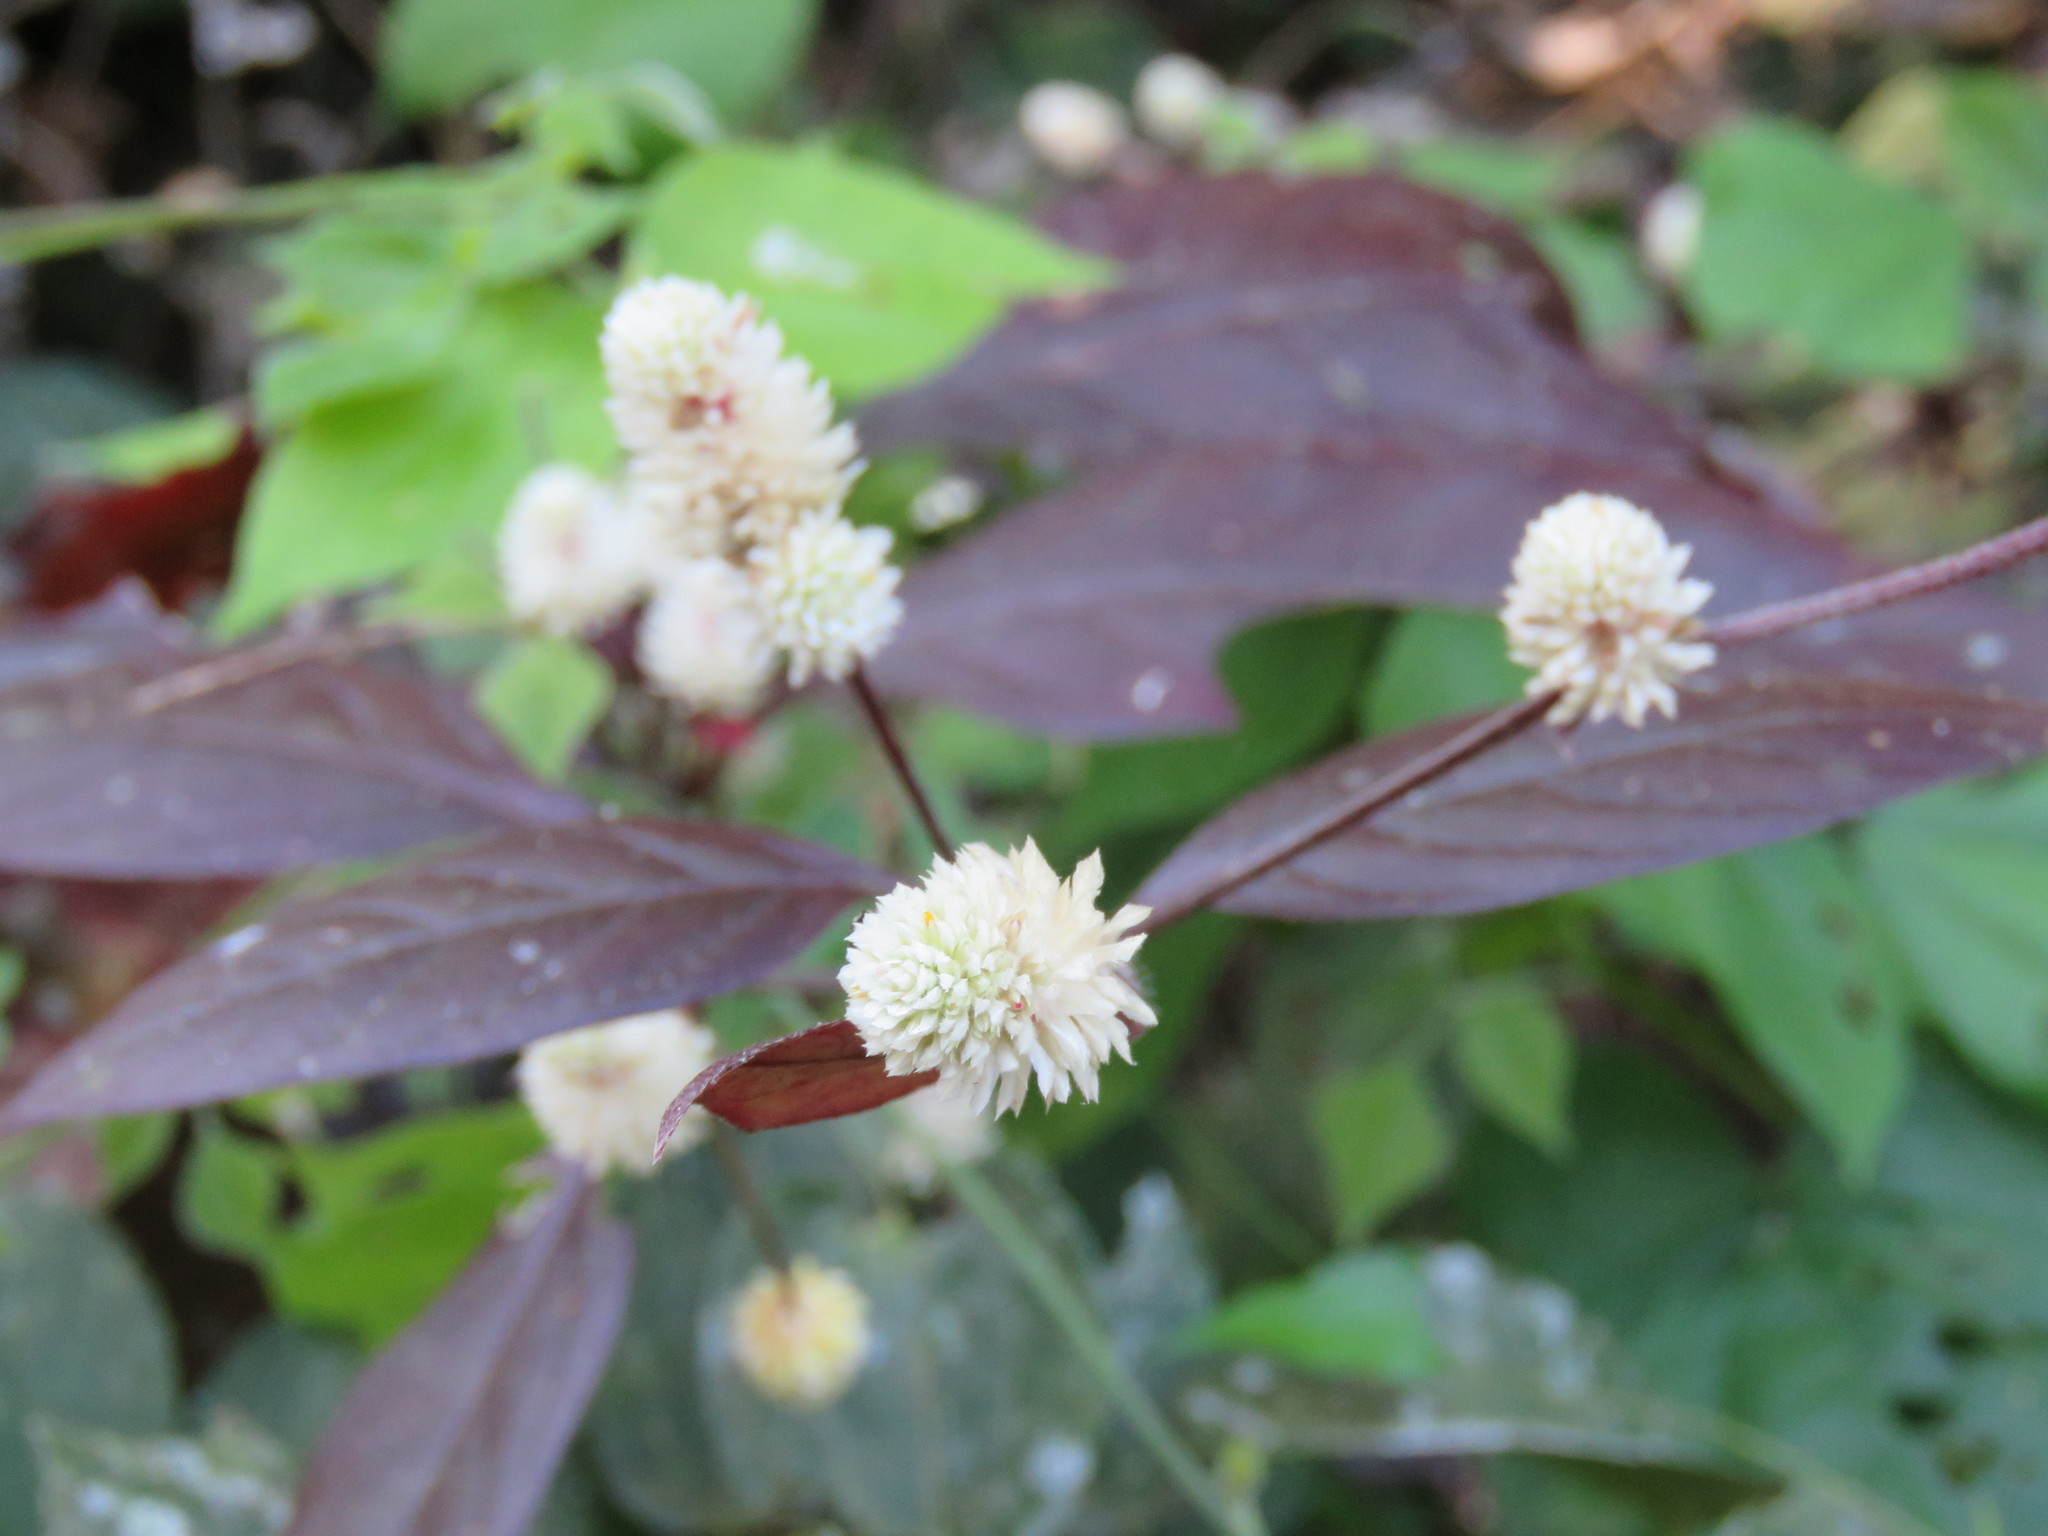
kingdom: Plantae
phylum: Tracheophyta
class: Magnoliopsida
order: Caryophyllales
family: Amaranthaceae
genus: Alternanthera
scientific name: Alternanthera brasiliana
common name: Brazilian joyweed
